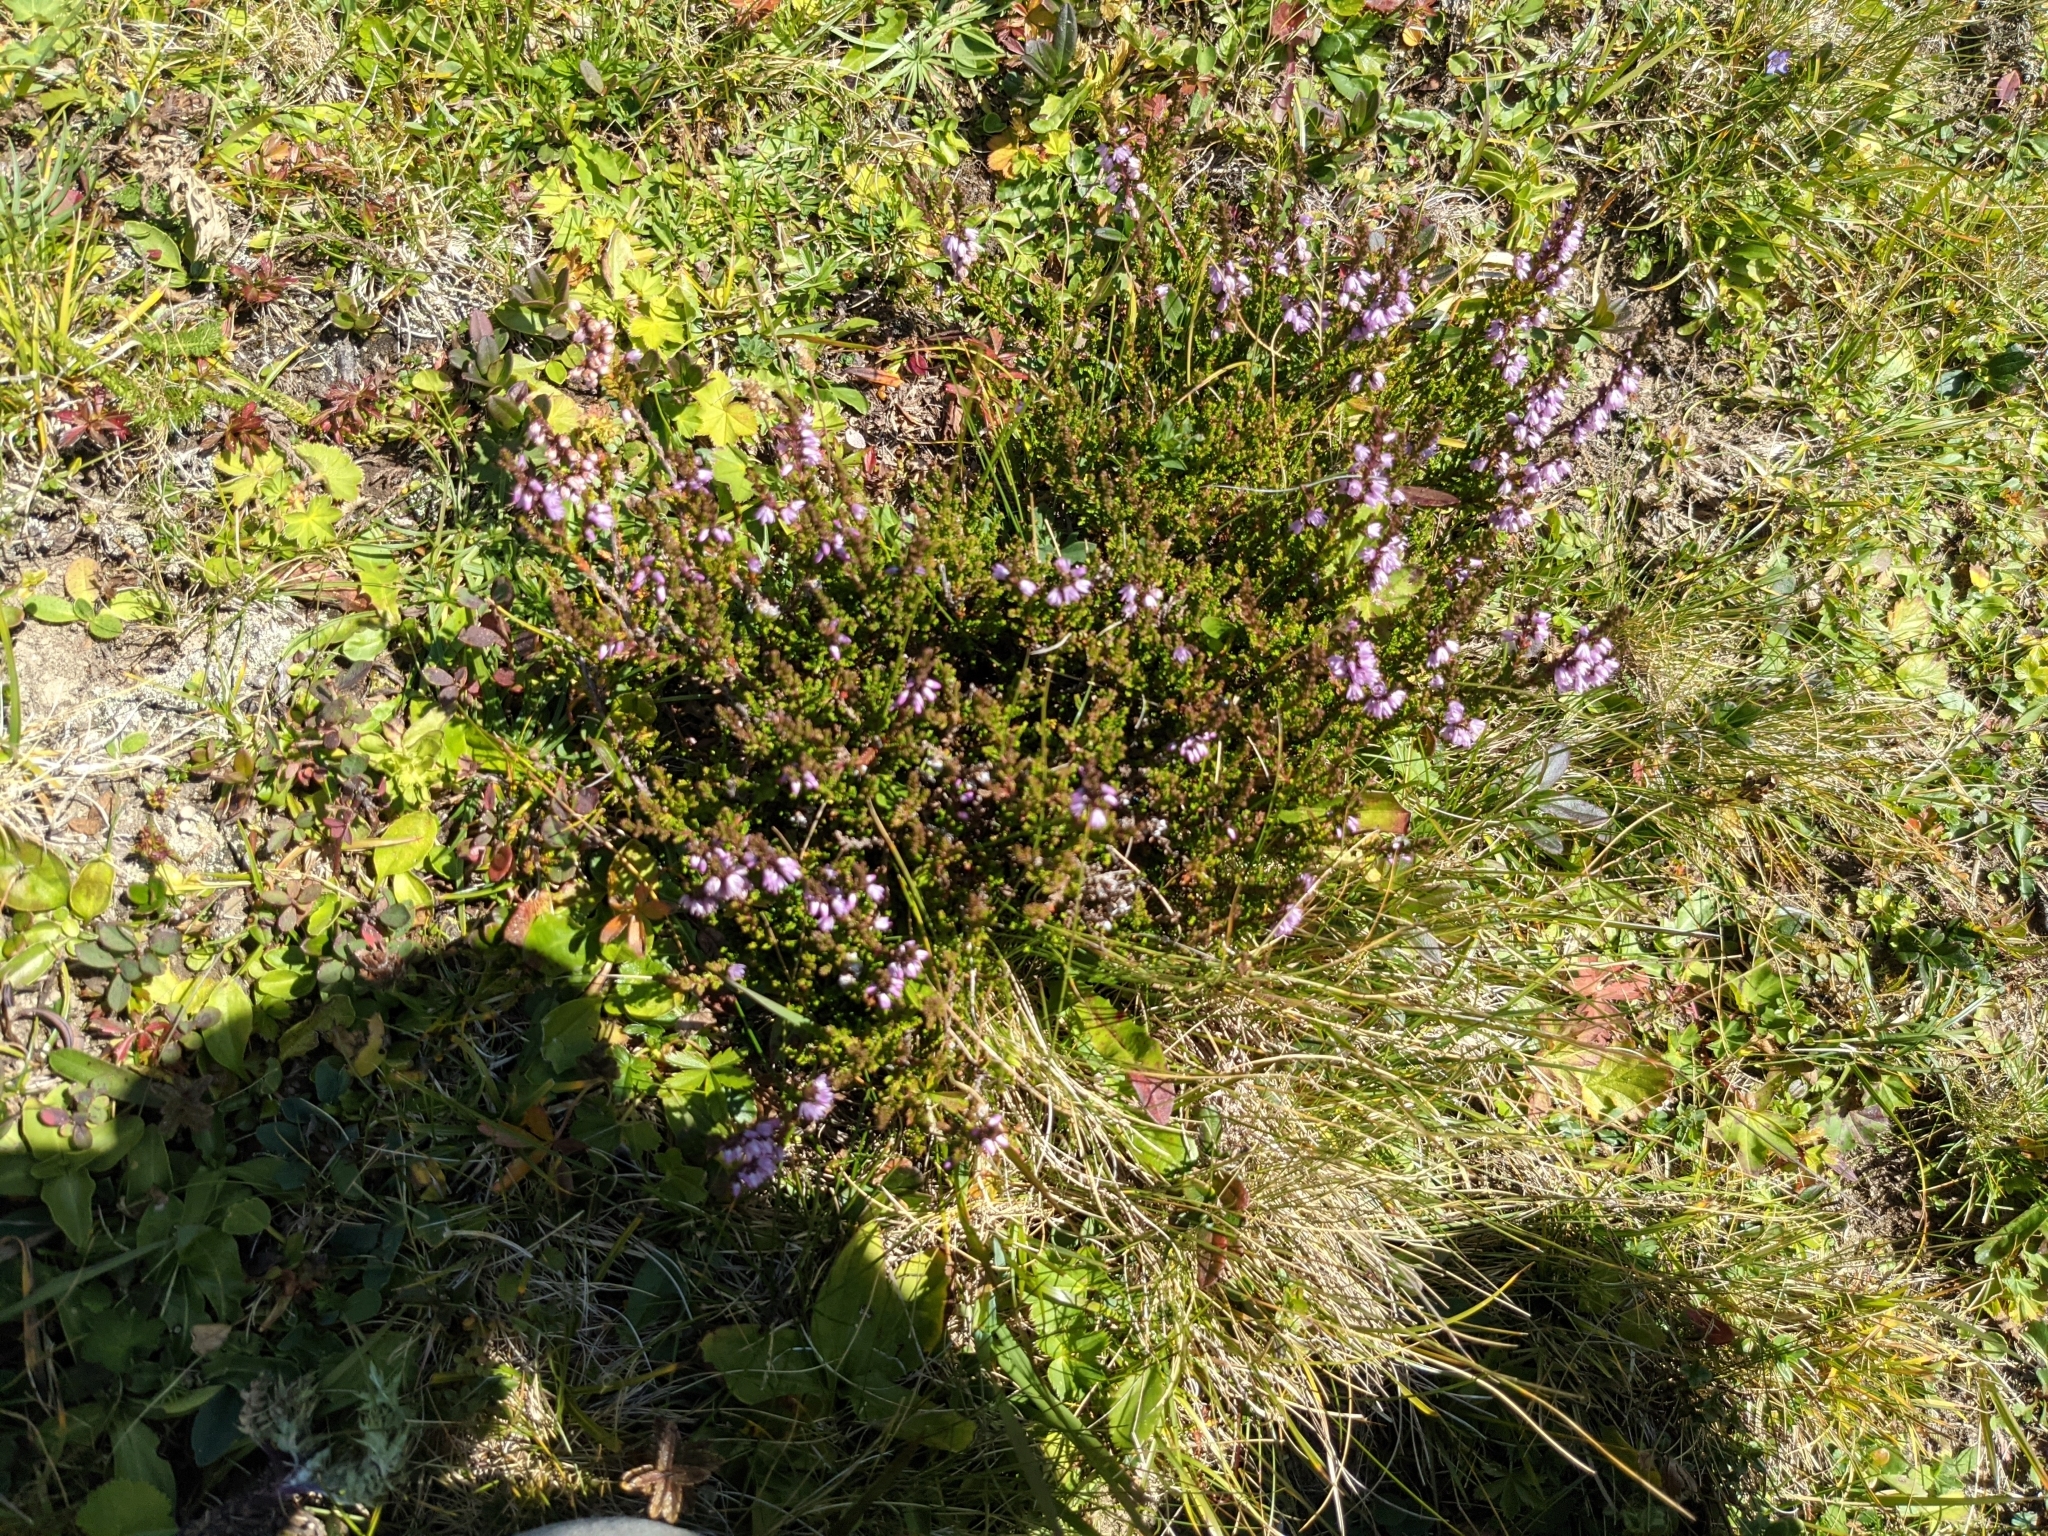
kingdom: Plantae
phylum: Tracheophyta
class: Magnoliopsida
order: Ericales
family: Ericaceae
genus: Calluna
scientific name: Calluna vulgaris
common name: Heather
